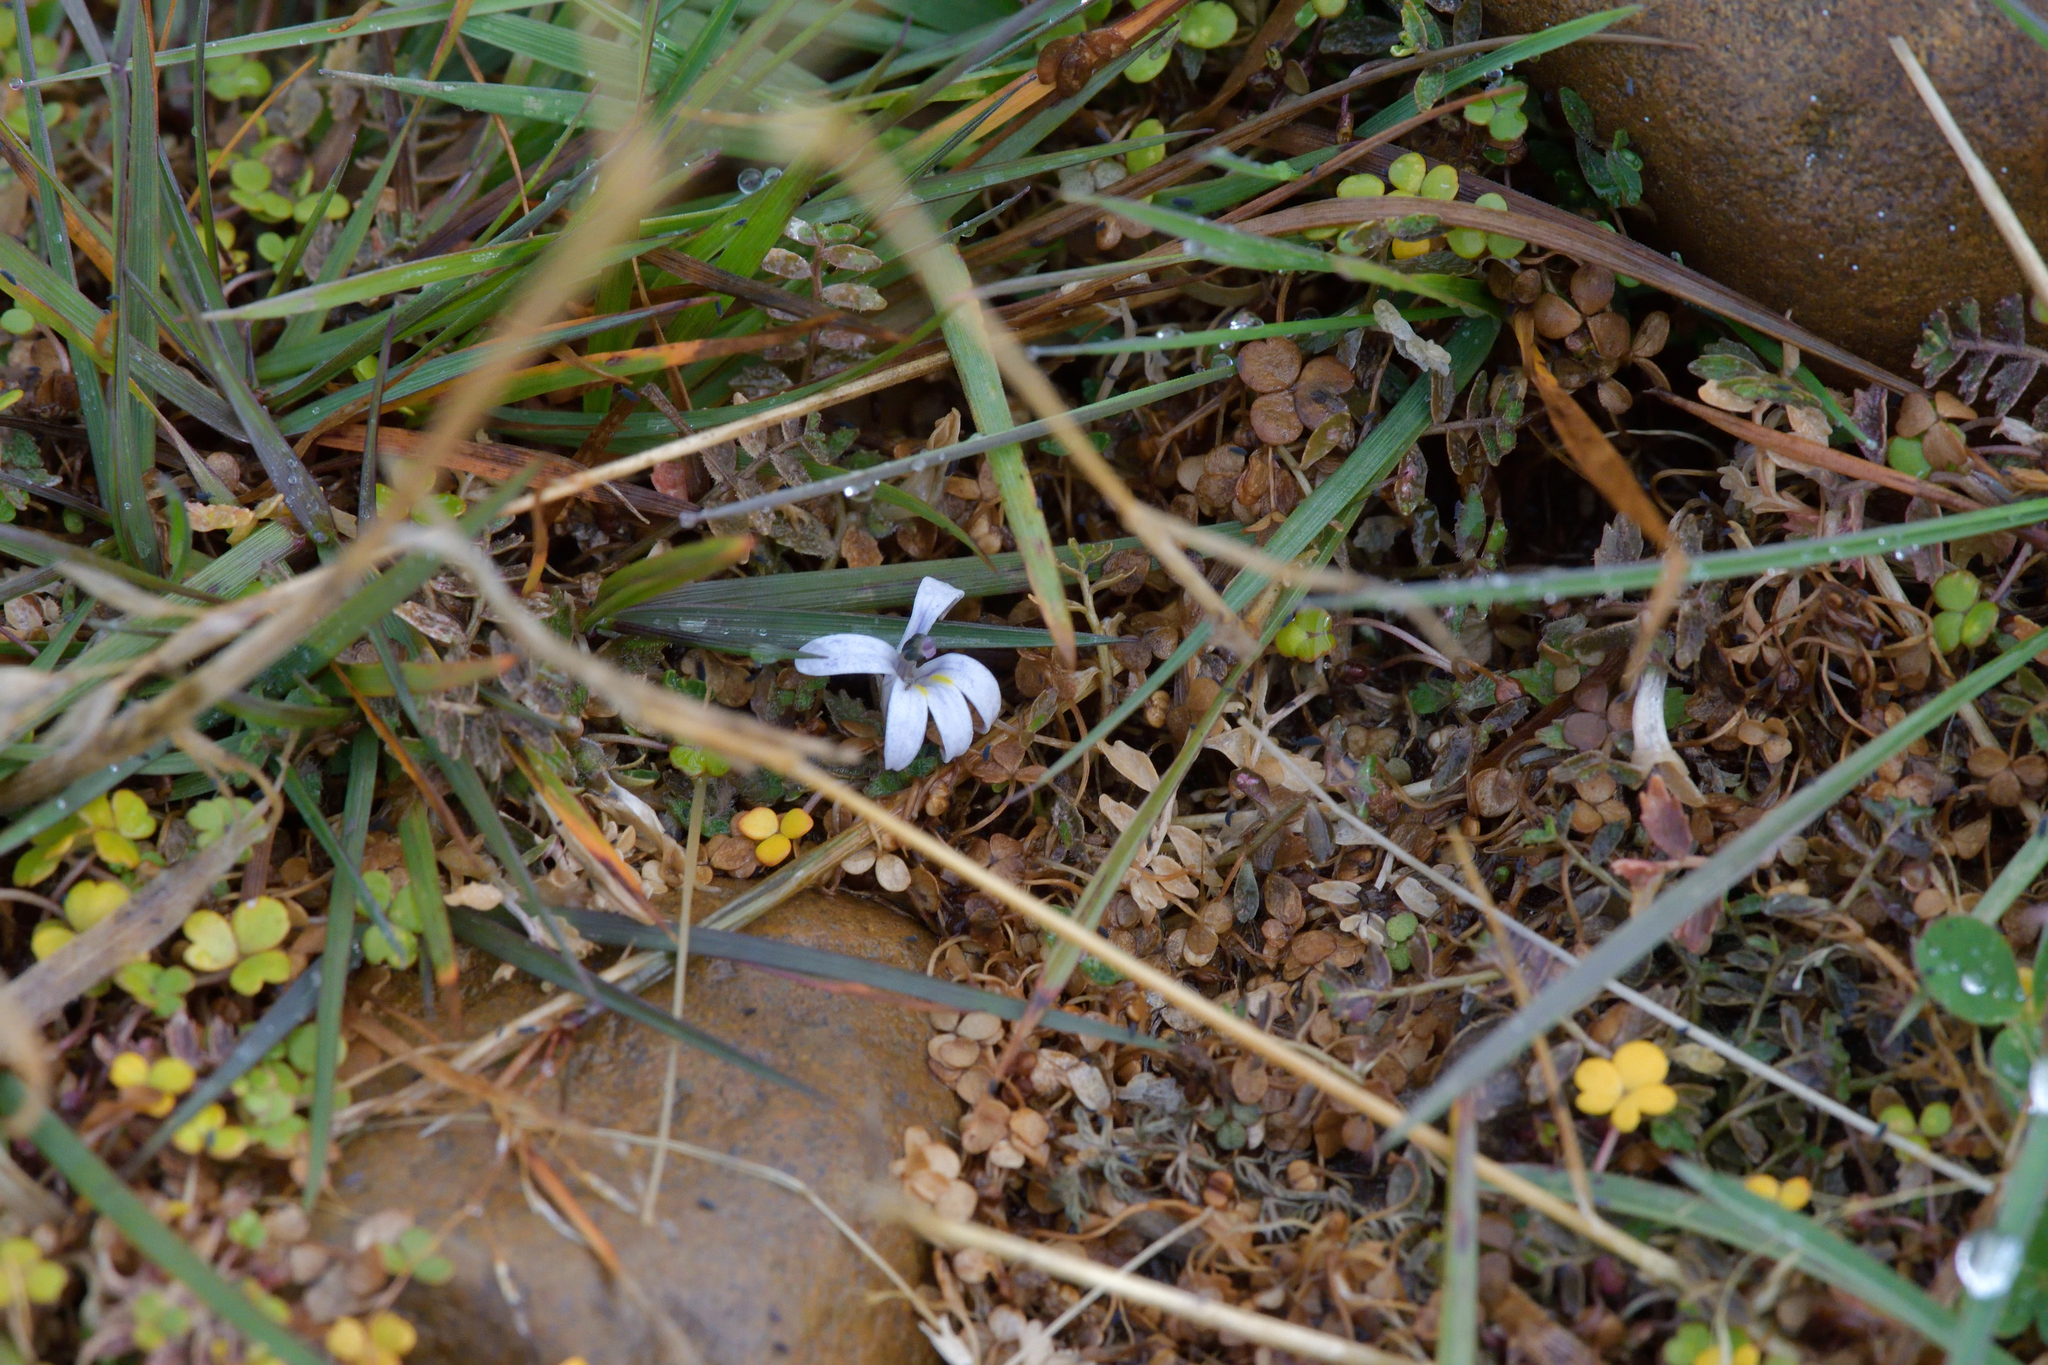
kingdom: Plantae
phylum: Tracheophyta
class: Magnoliopsida
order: Asterales
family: Campanulaceae
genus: Lobelia
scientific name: Lobelia perpusilla
